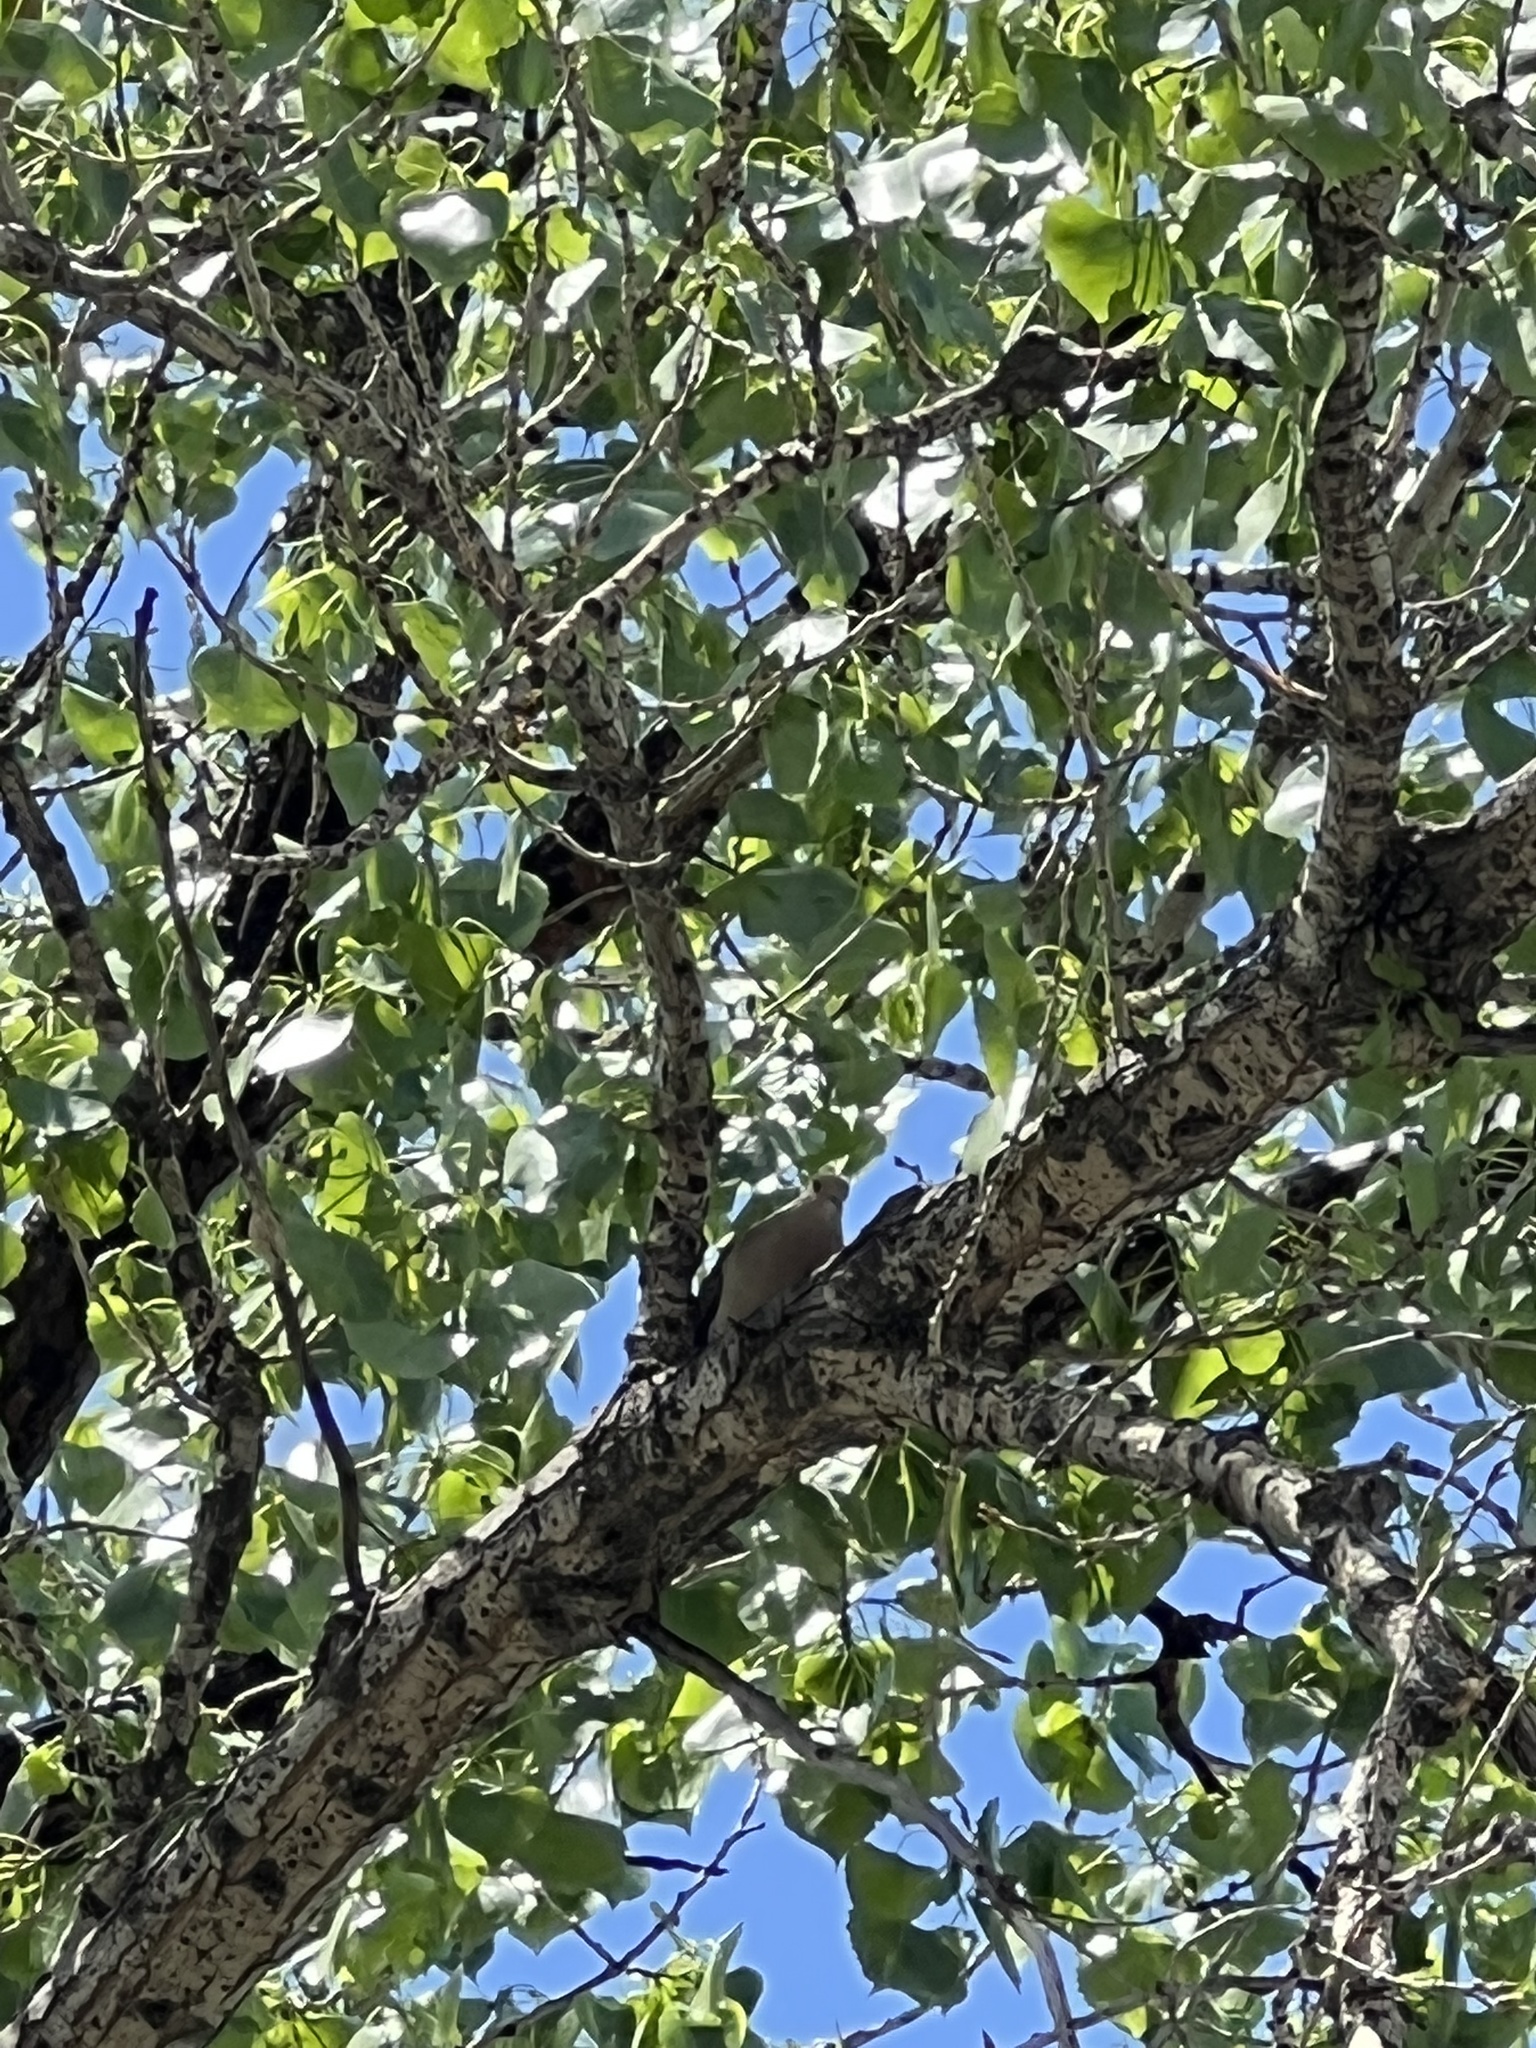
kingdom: Animalia
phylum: Chordata
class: Aves
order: Columbiformes
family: Columbidae
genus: Zenaida
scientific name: Zenaida macroura
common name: Mourning dove
